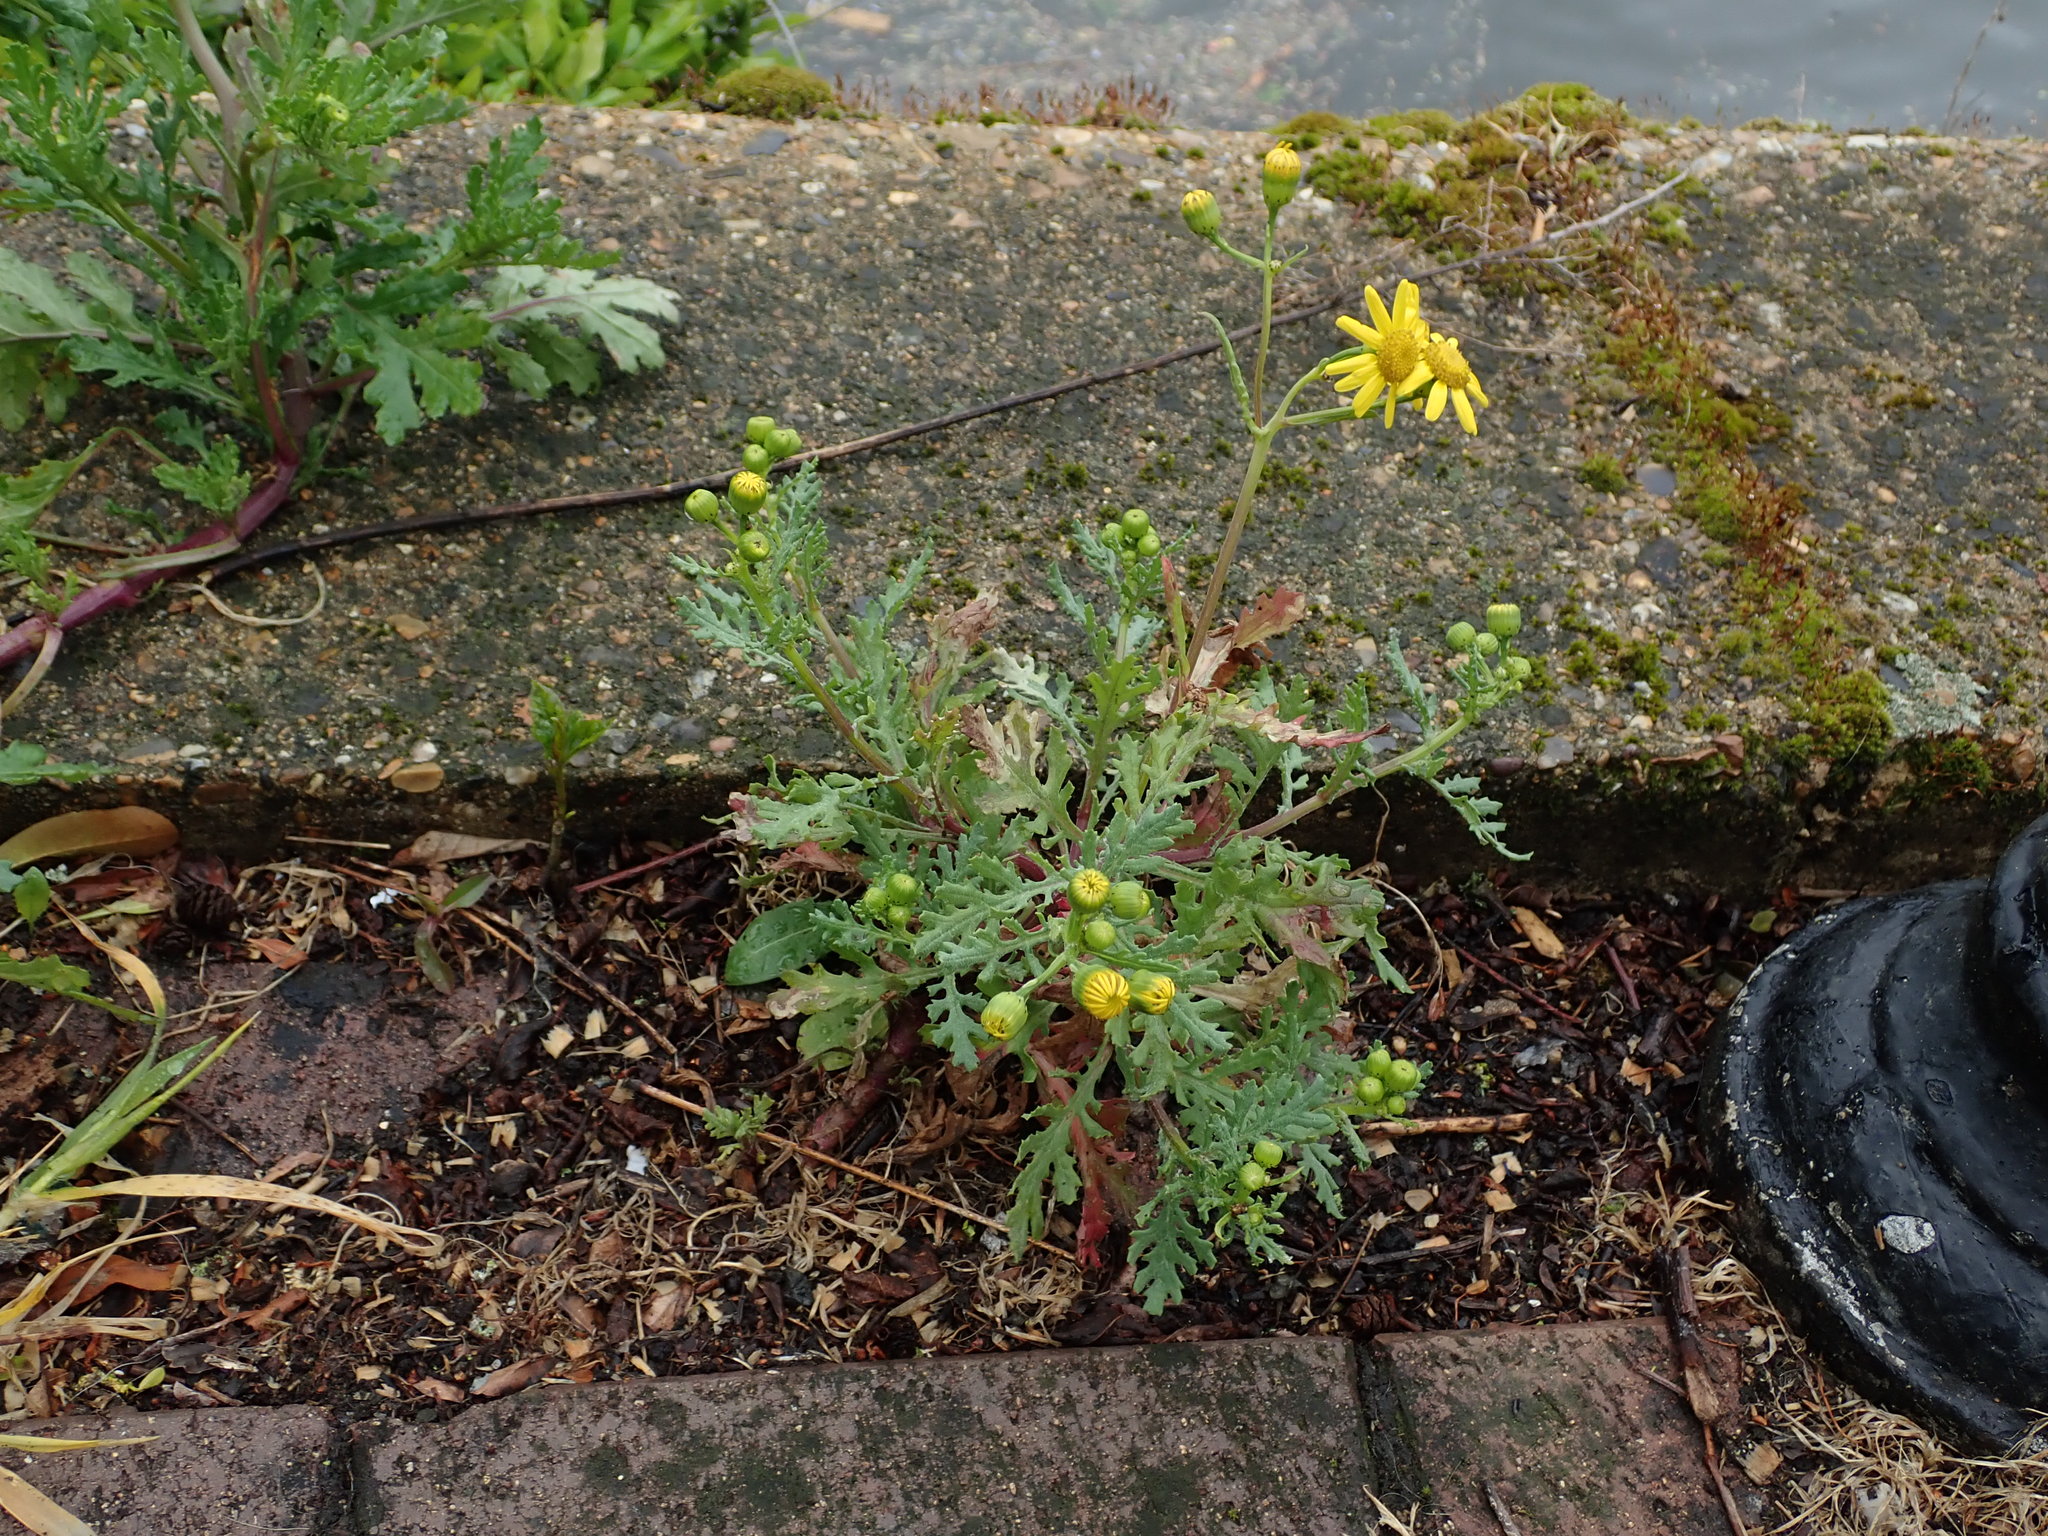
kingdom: Plantae
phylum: Tracheophyta
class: Magnoliopsida
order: Asterales
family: Asteraceae
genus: Senecio
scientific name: Senecio squalidus
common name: Oxford ragwort
